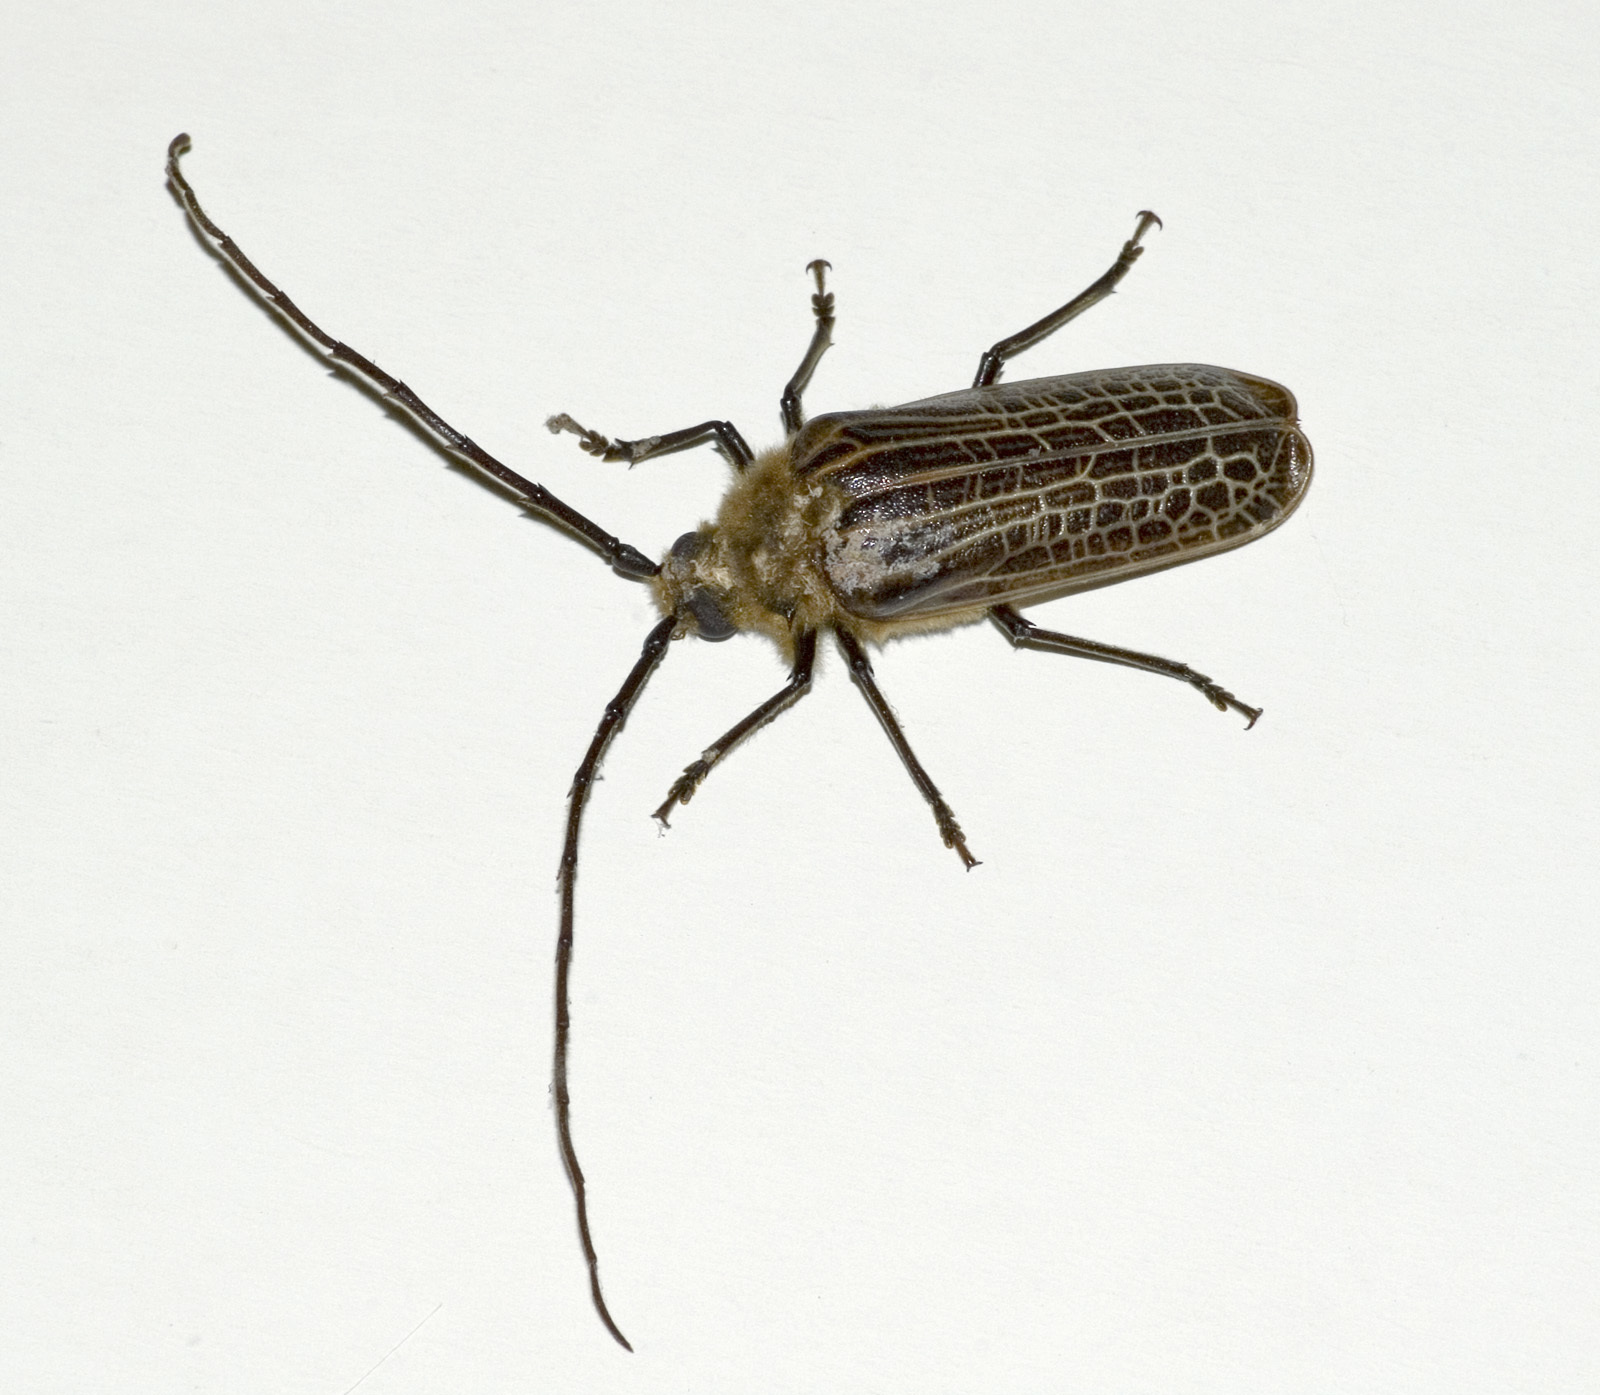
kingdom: Animalia
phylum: Arthropoda
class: Insecta
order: Coleoptera
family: Cerambycidae
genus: Prionoplus
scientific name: Prionoplus reticularis
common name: Huhu beetle
